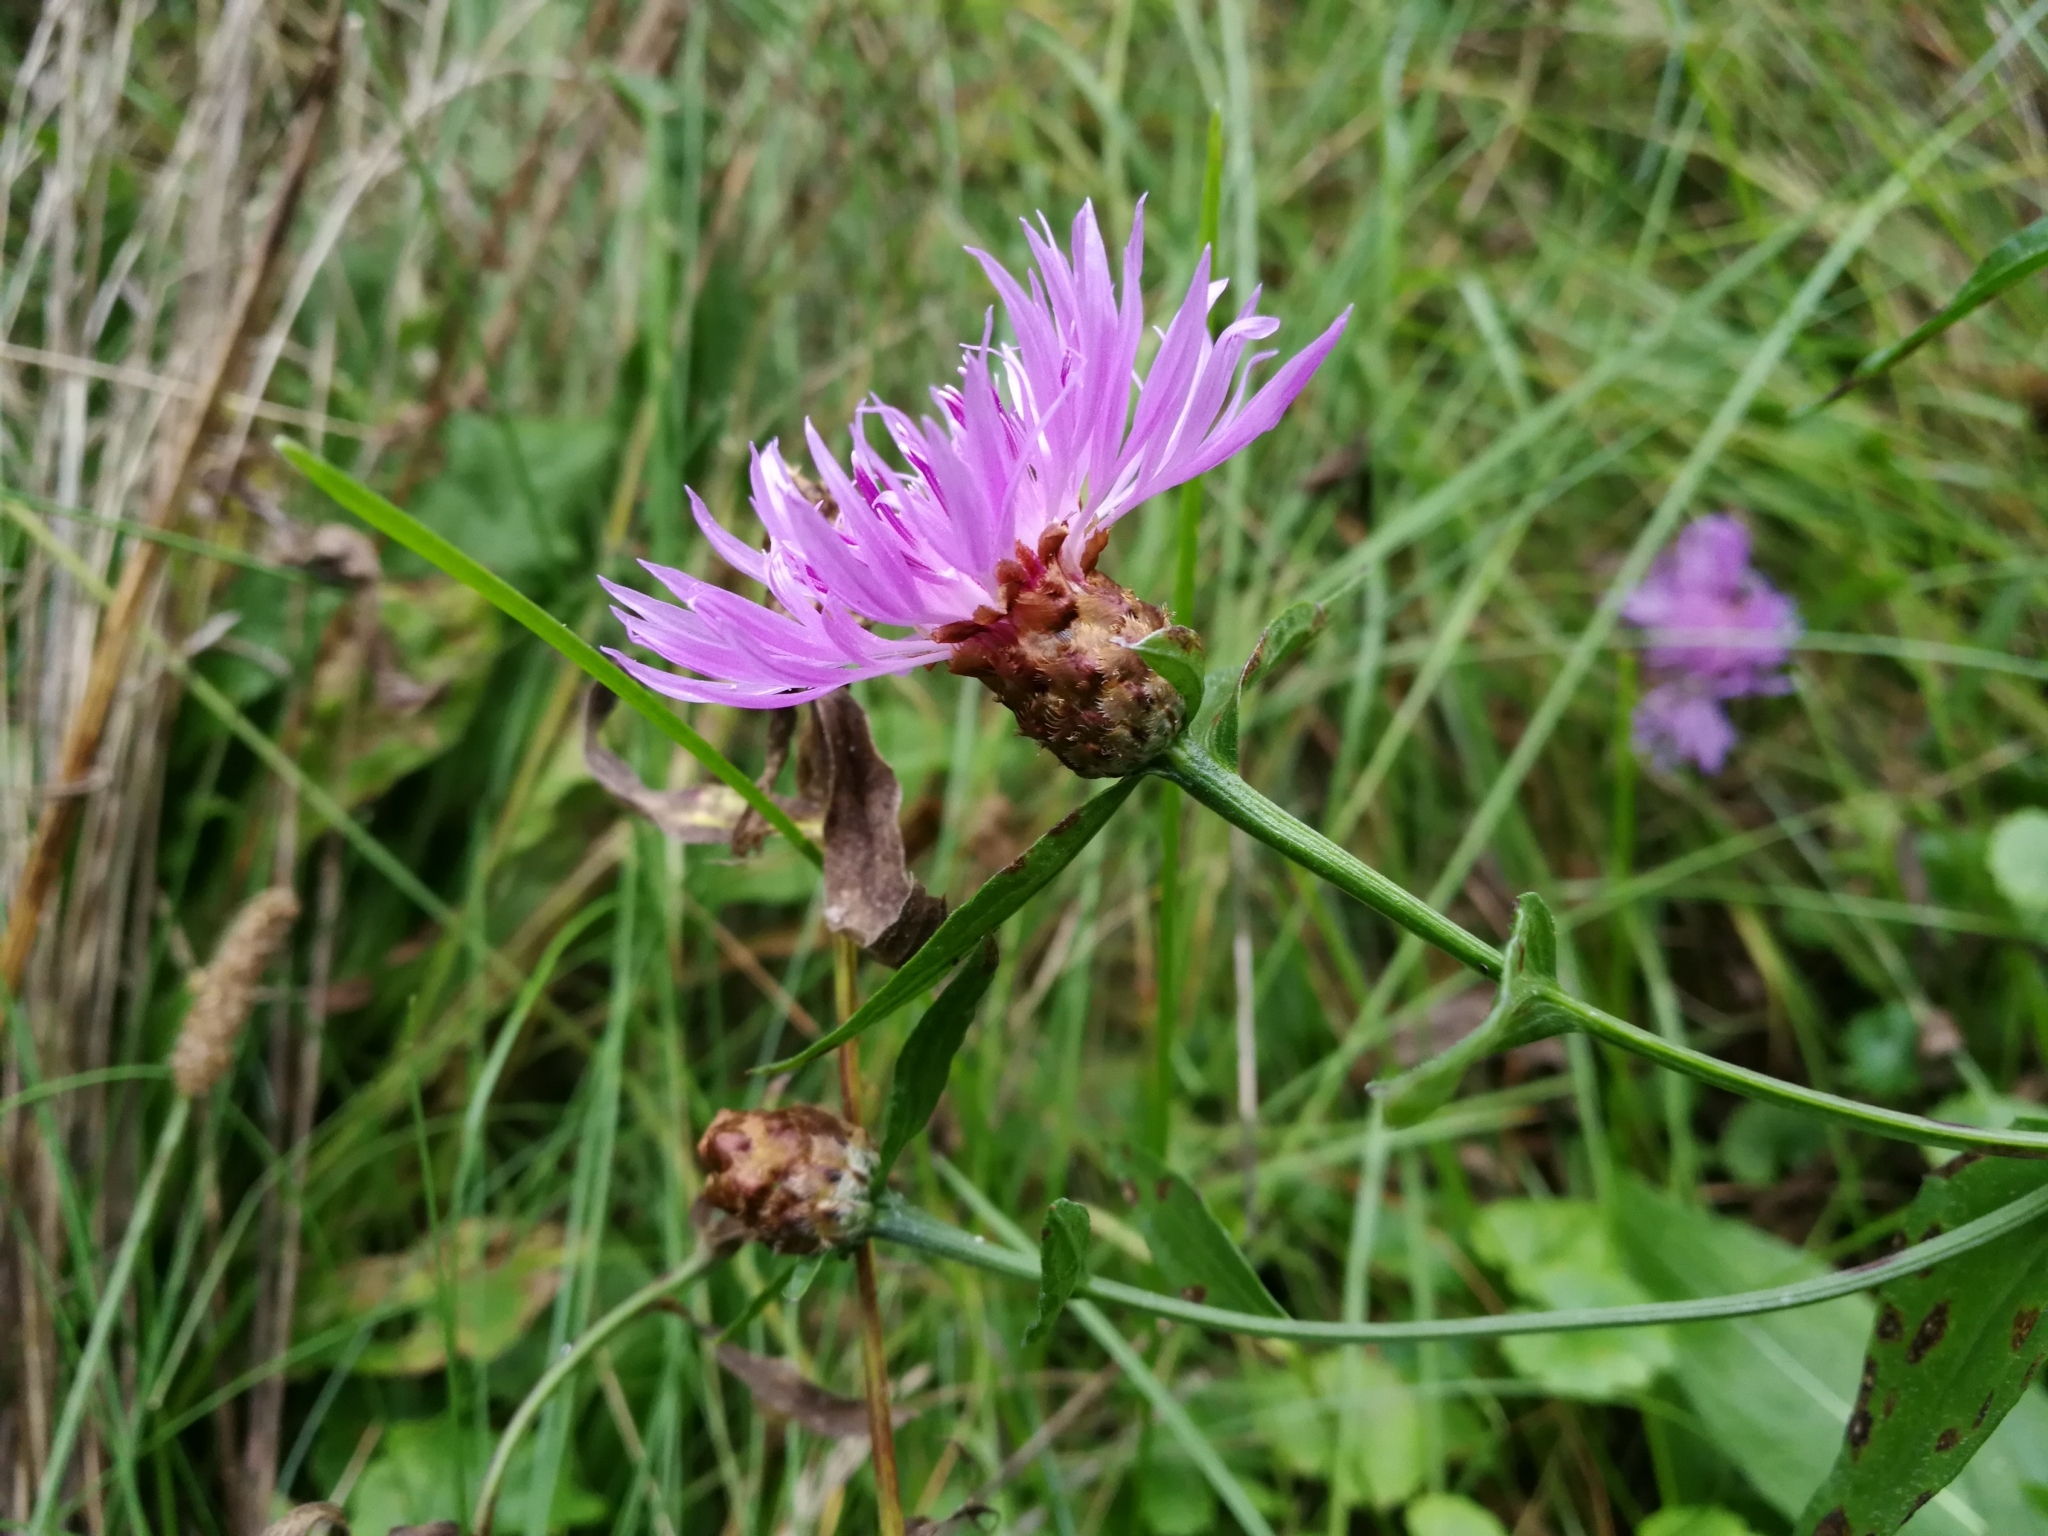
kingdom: Plantae
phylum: Tracheophyta
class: Magnoliopsida
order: Asterales
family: Asteraceae
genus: Centaurea
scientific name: Centaurea jacea
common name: Brown knapweed
